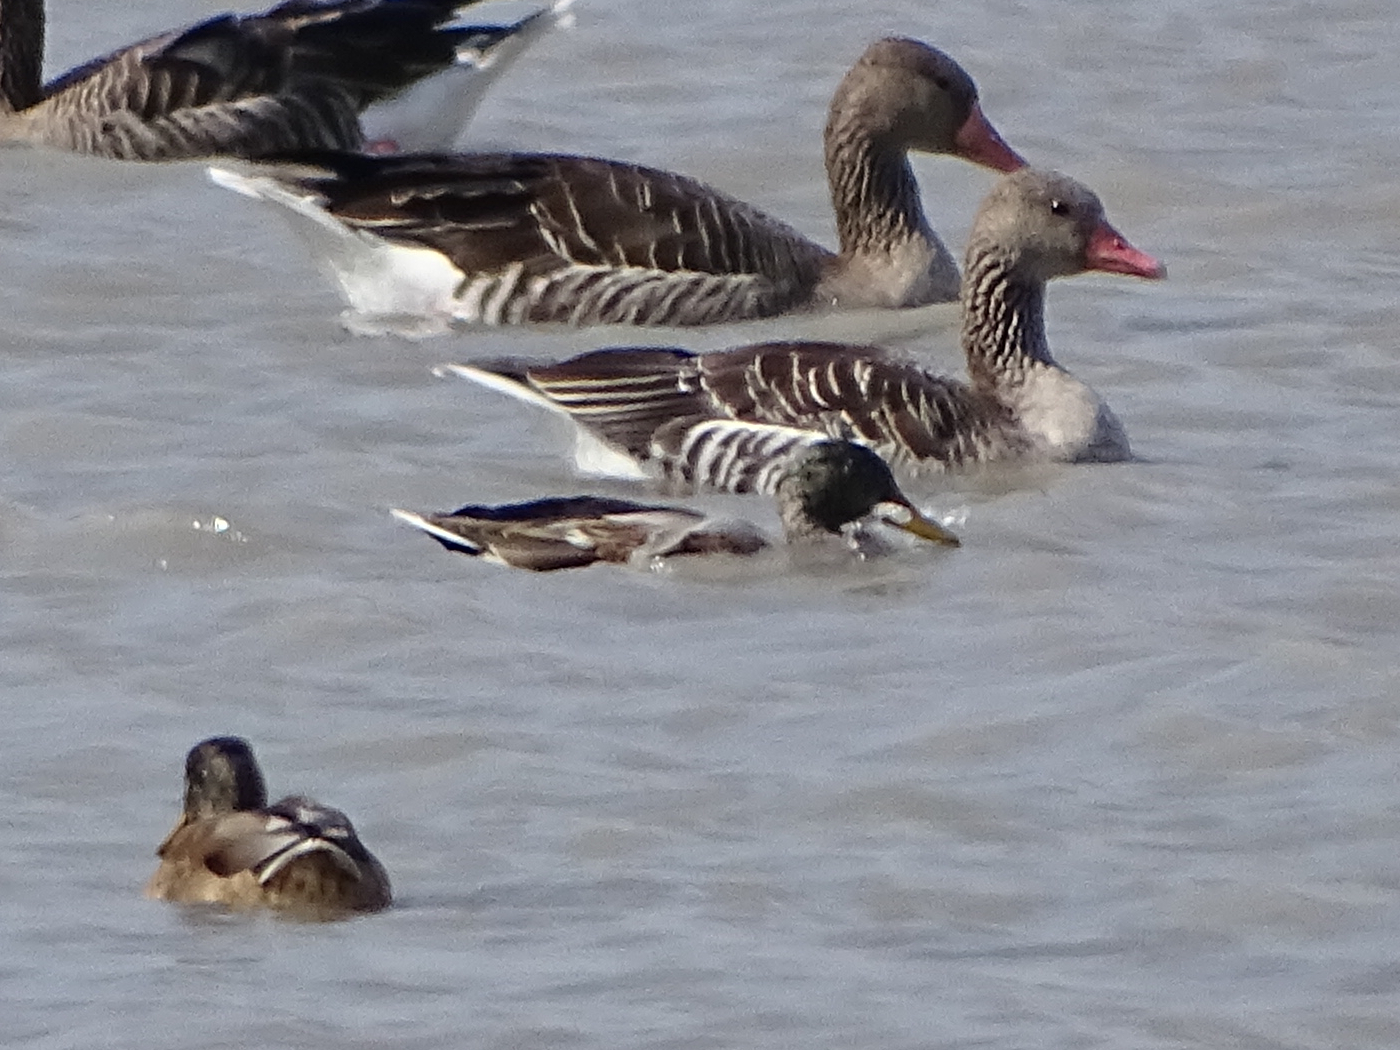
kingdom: Animalia
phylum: Chordata
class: Aves
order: Anseriformes
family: Anatidae
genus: Anas
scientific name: Anas platyrhynchos
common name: Mallard
